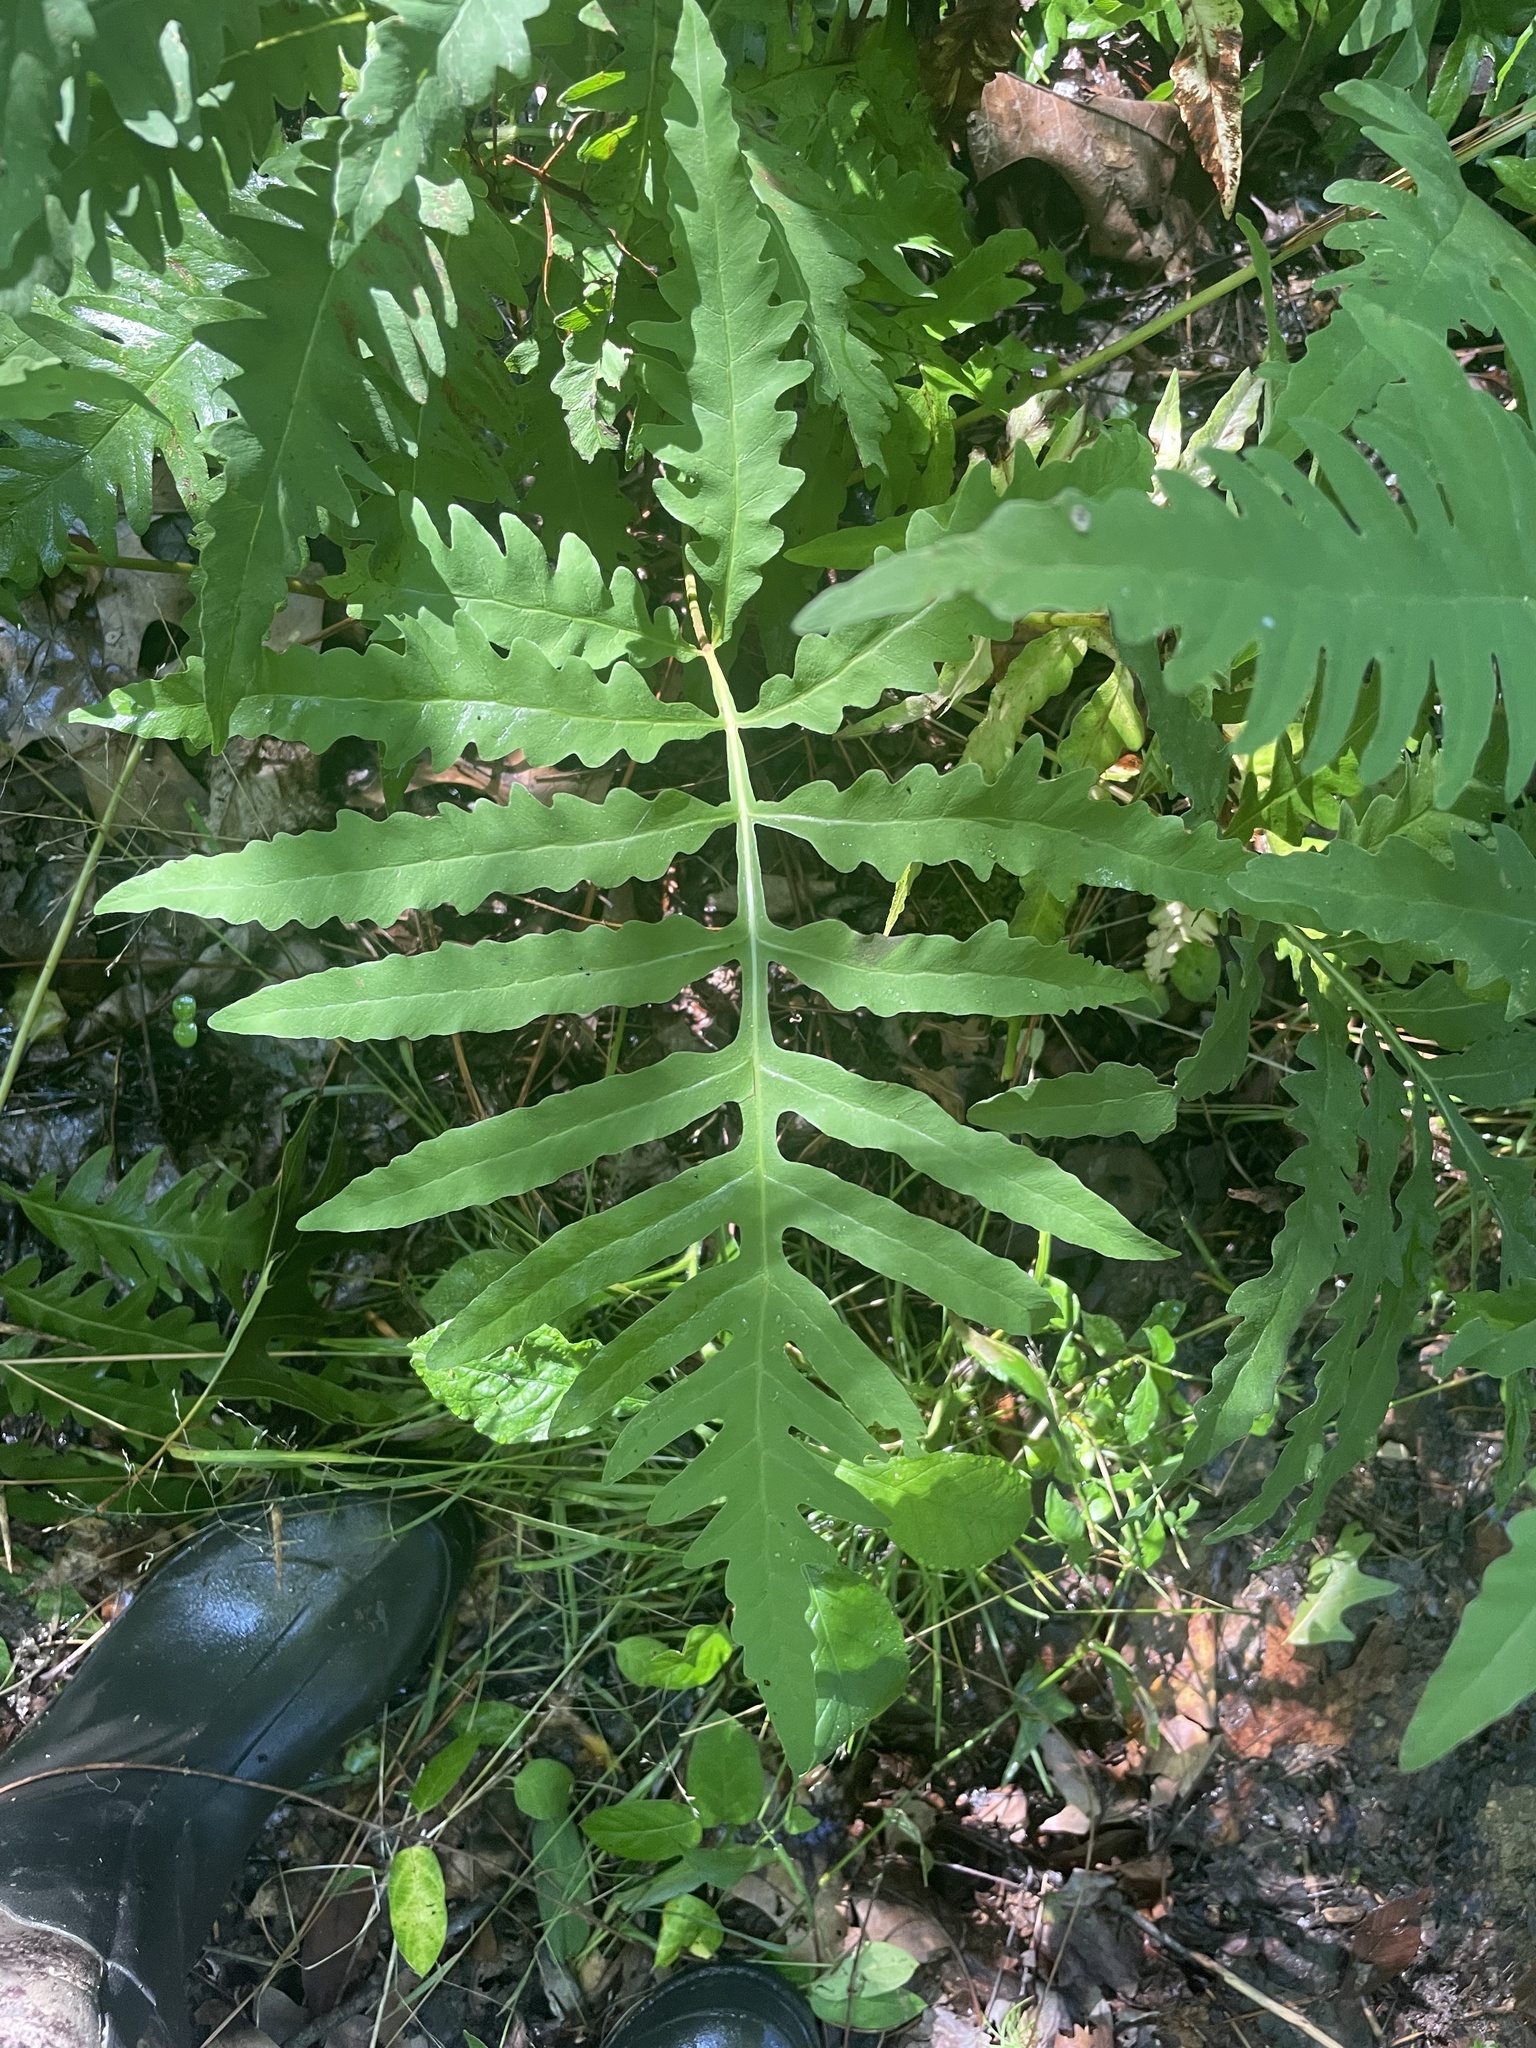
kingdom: Plantae
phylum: Tracheophyta
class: Polypodiopsida
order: Polypodiales
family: Onocleaceae
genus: Onoclea
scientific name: Onoclea sensibilis
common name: Sensitive fern
